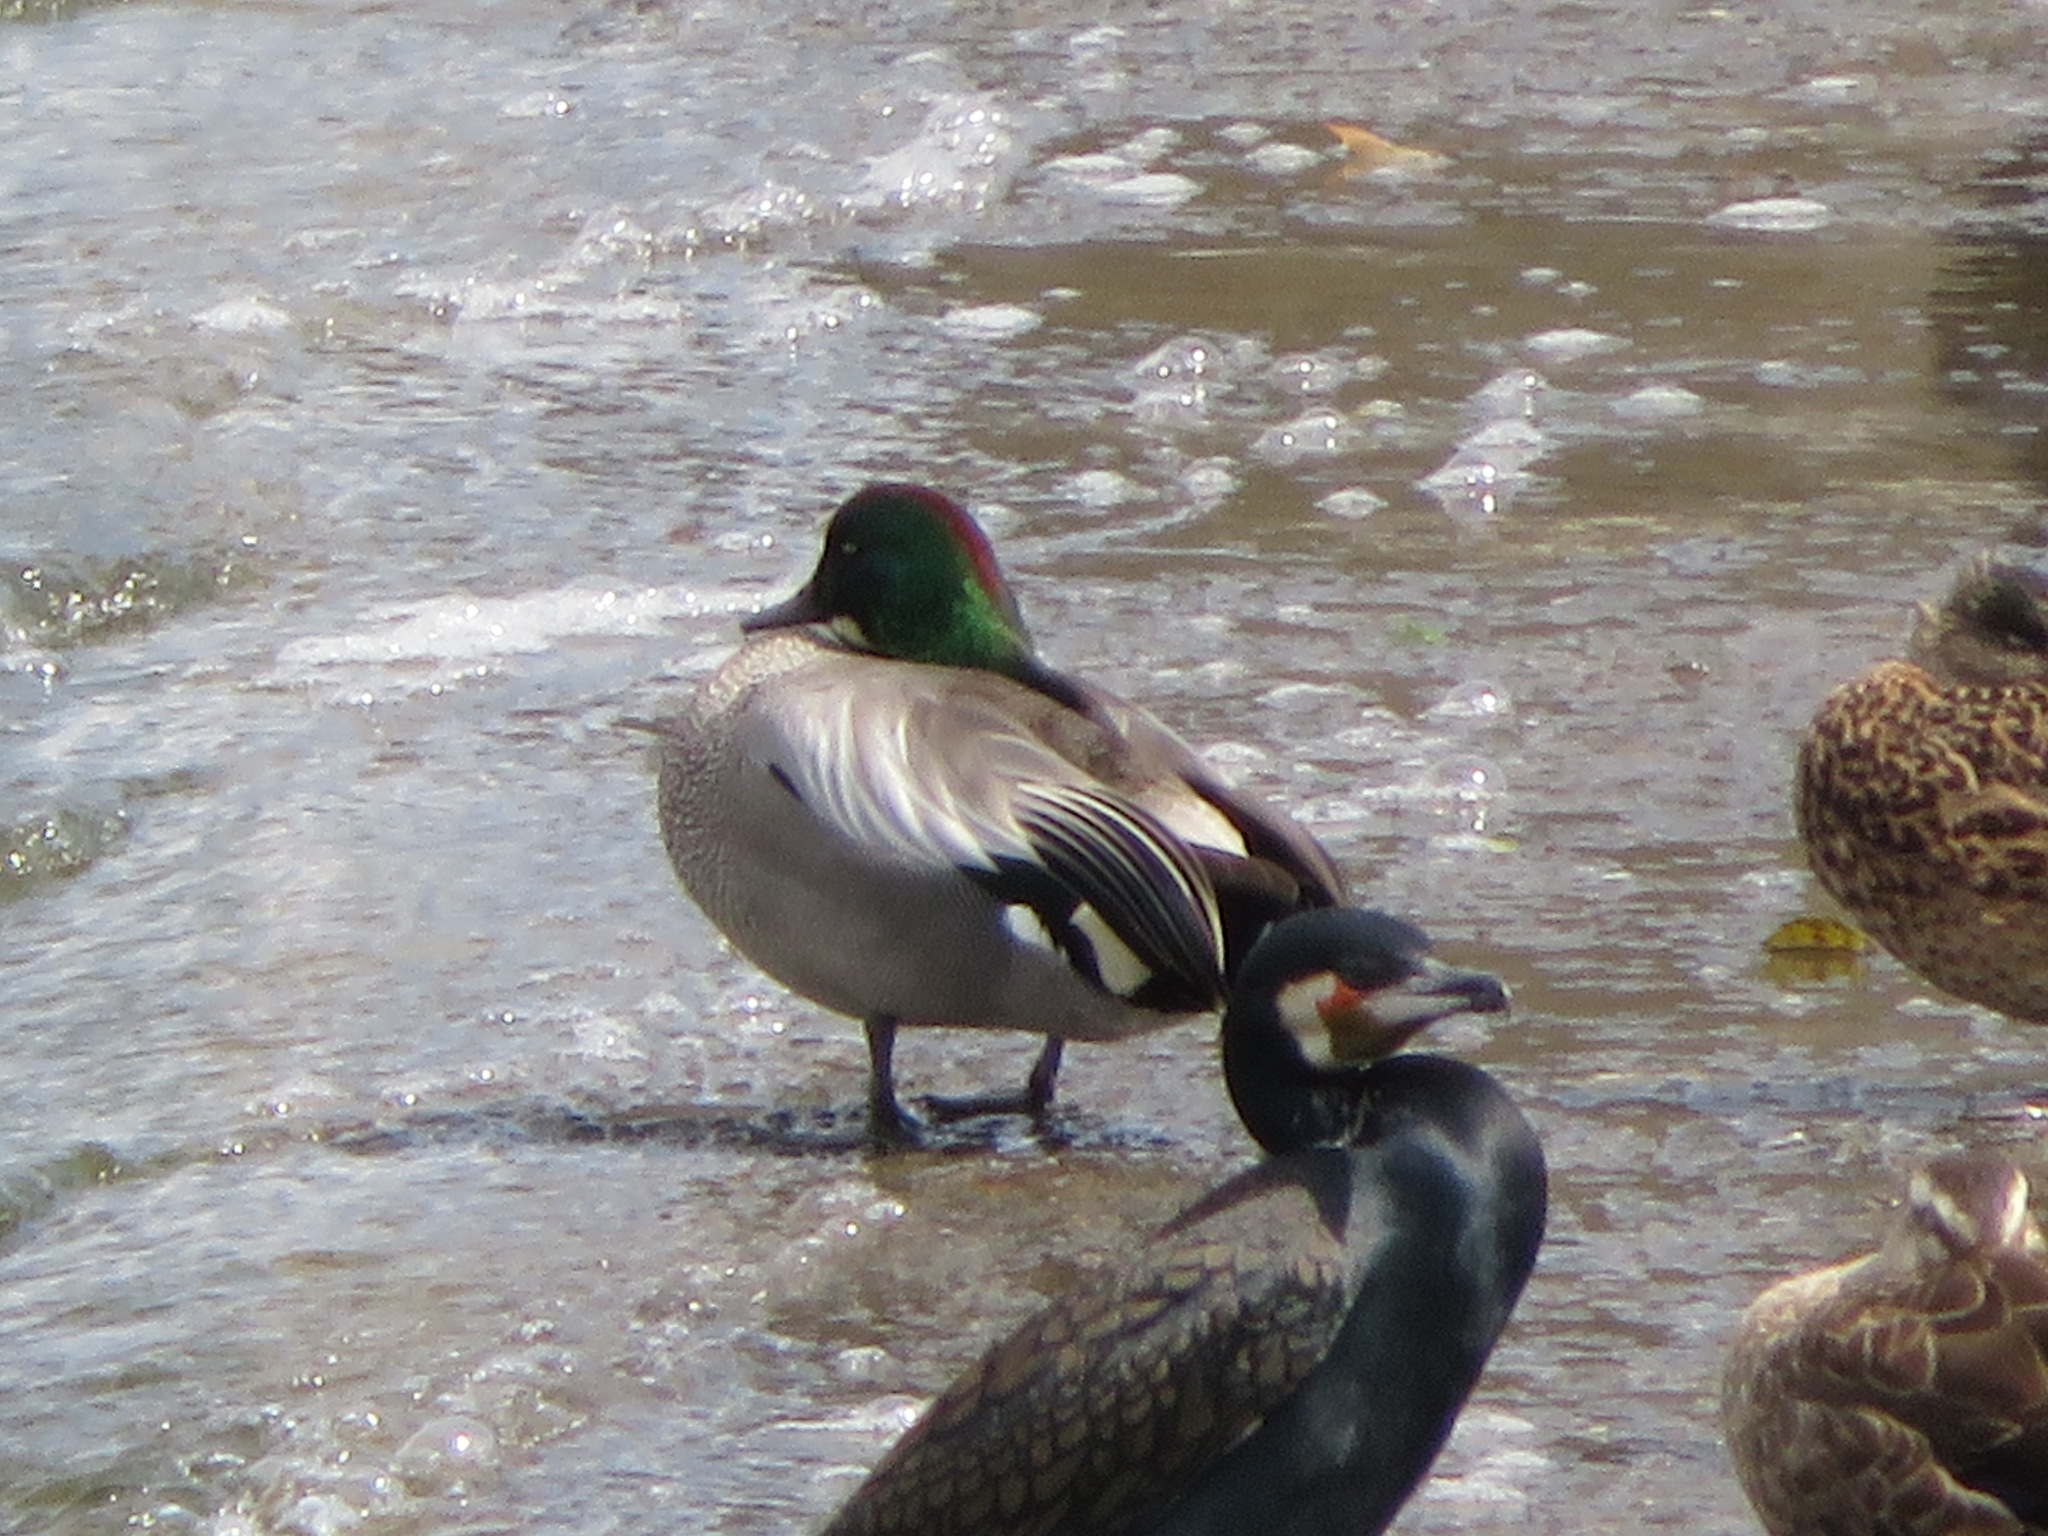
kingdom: Animalia
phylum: Chordata
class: Aves
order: Anseriformes
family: Anatidae
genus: Mareca
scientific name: Mareca falcata
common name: Falcated duck
